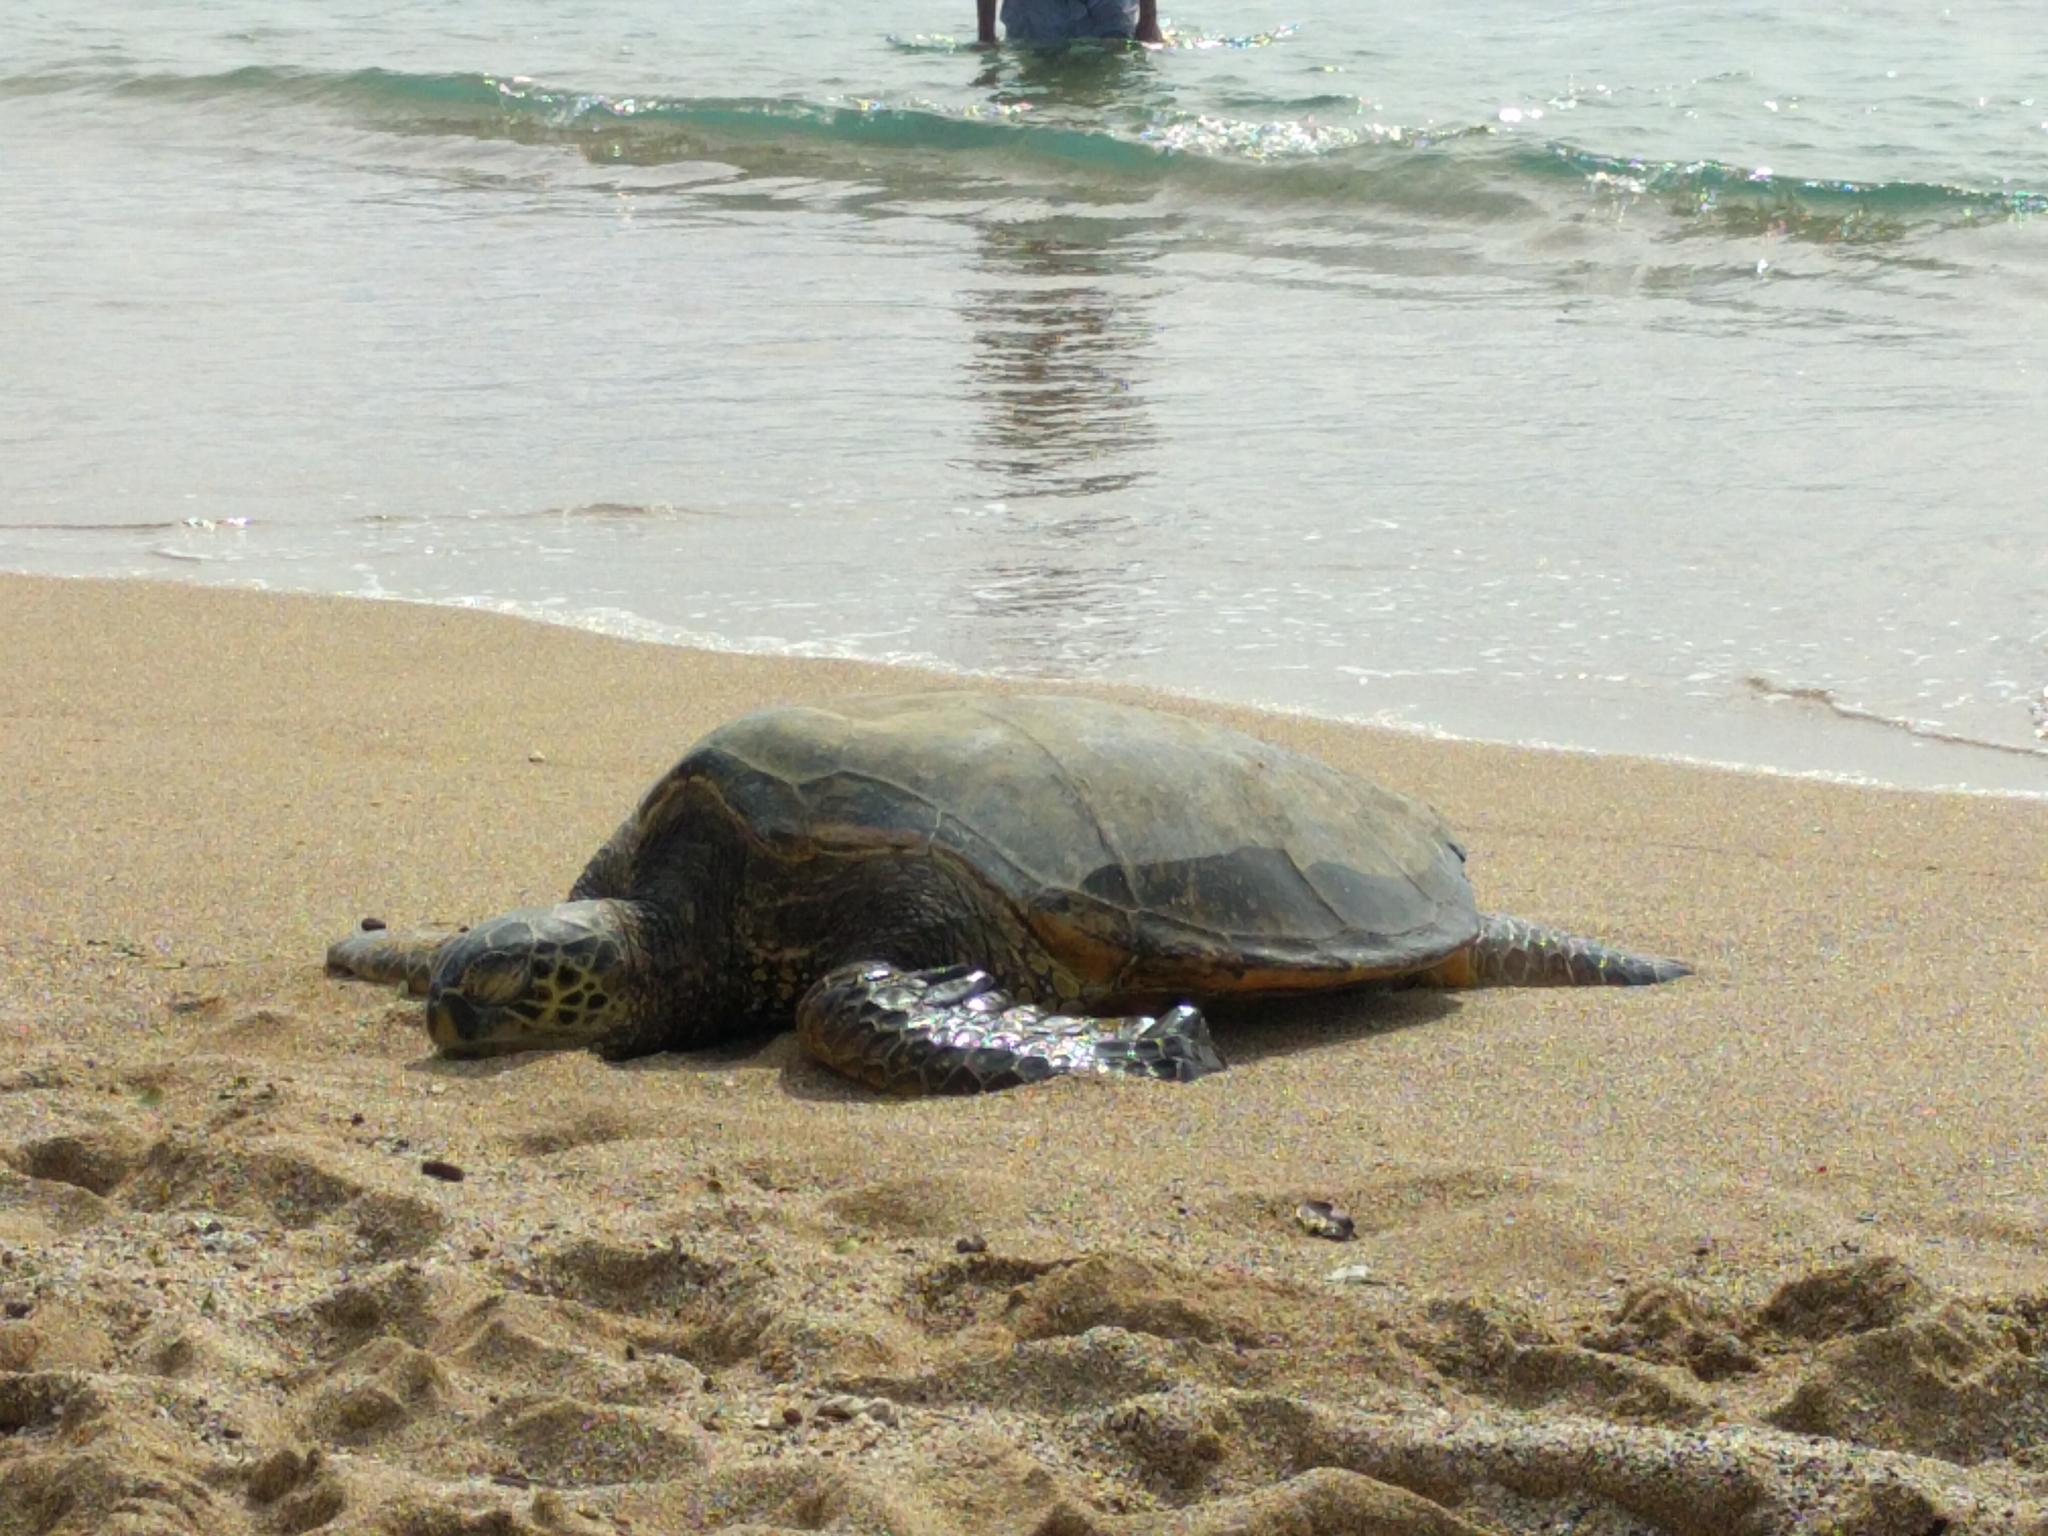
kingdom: Animalia
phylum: Chordata
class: Testudines
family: Cheloniidae
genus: Chelonia
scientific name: Chelonia mydas
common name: Green turtle
